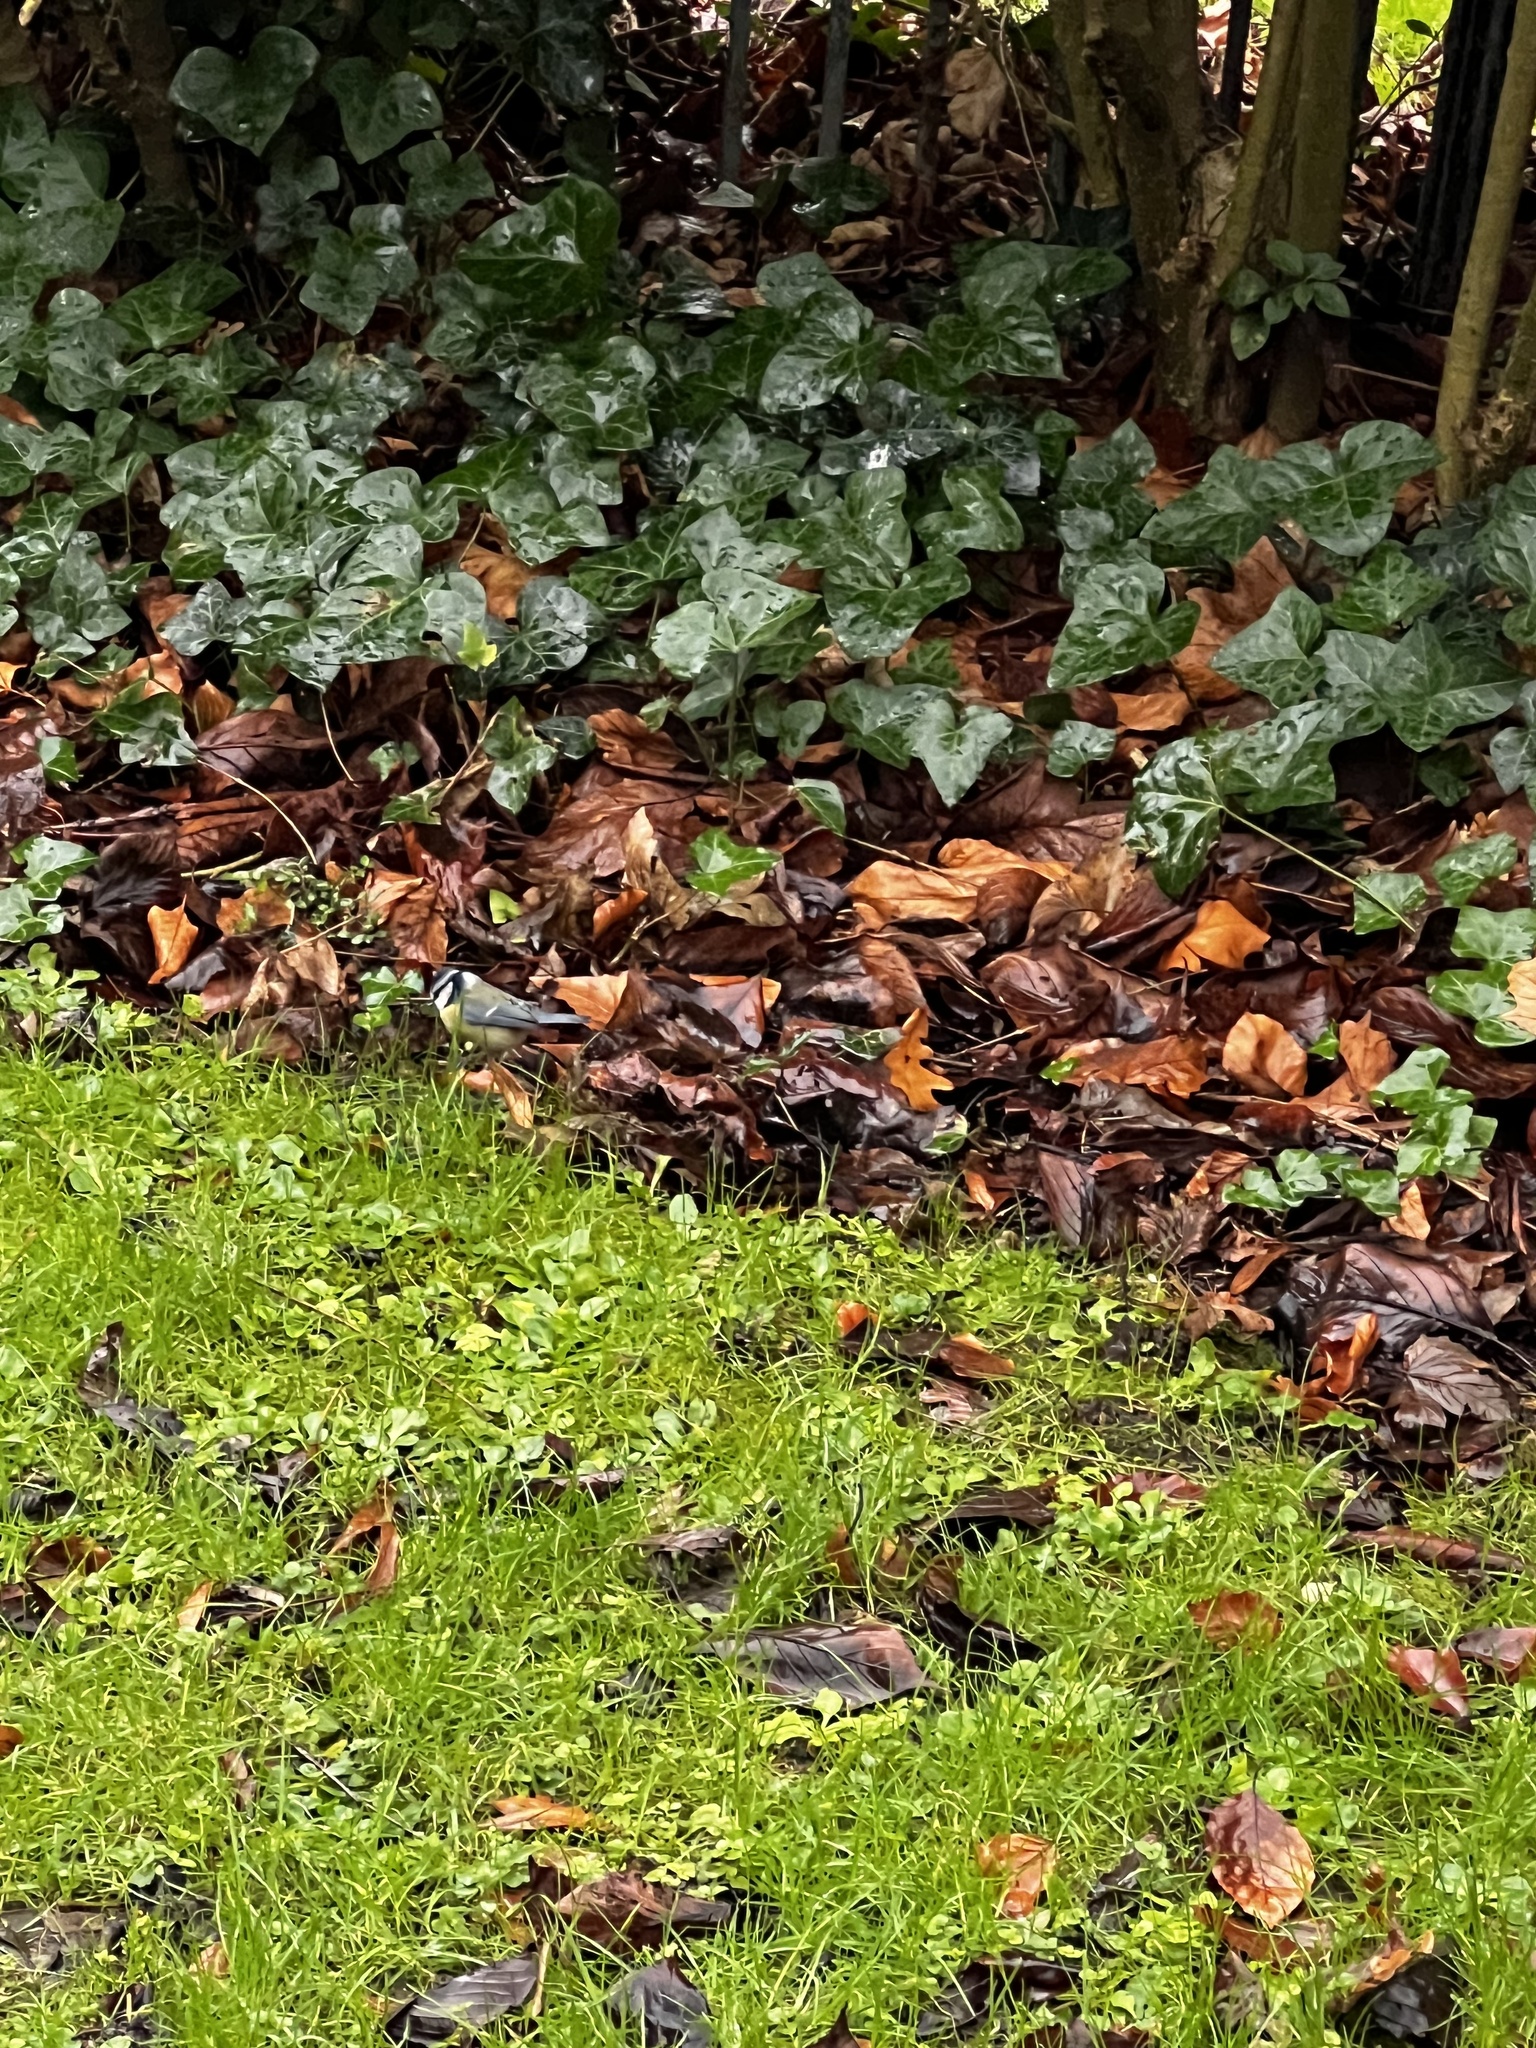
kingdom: Animalia
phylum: Chordata
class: Aves
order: Passeriformes
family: Paridae
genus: Cyanistes
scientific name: Cyanistes caeruleus
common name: Eurasian blue tit
